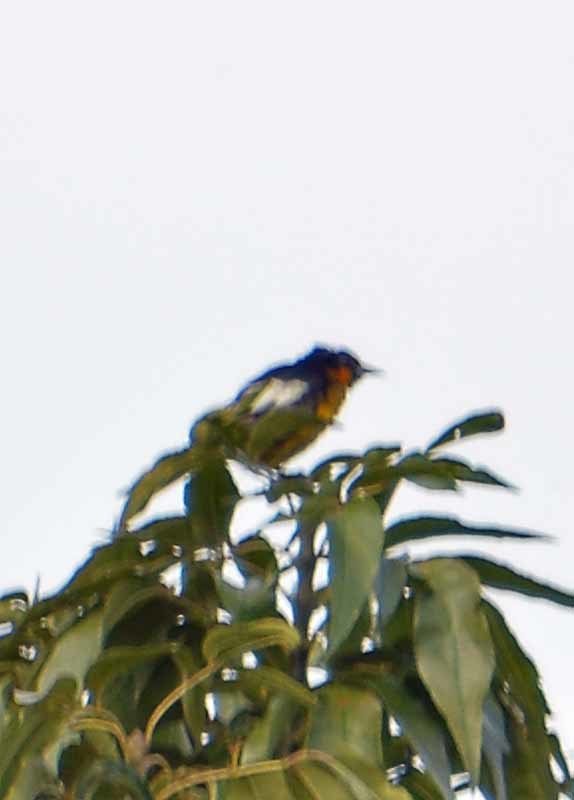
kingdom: Animalia
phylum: Chordata
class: Aves
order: Passeriformes
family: Icteridae
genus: Icterus
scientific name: Icterus abeillei
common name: Black-backed oriole
